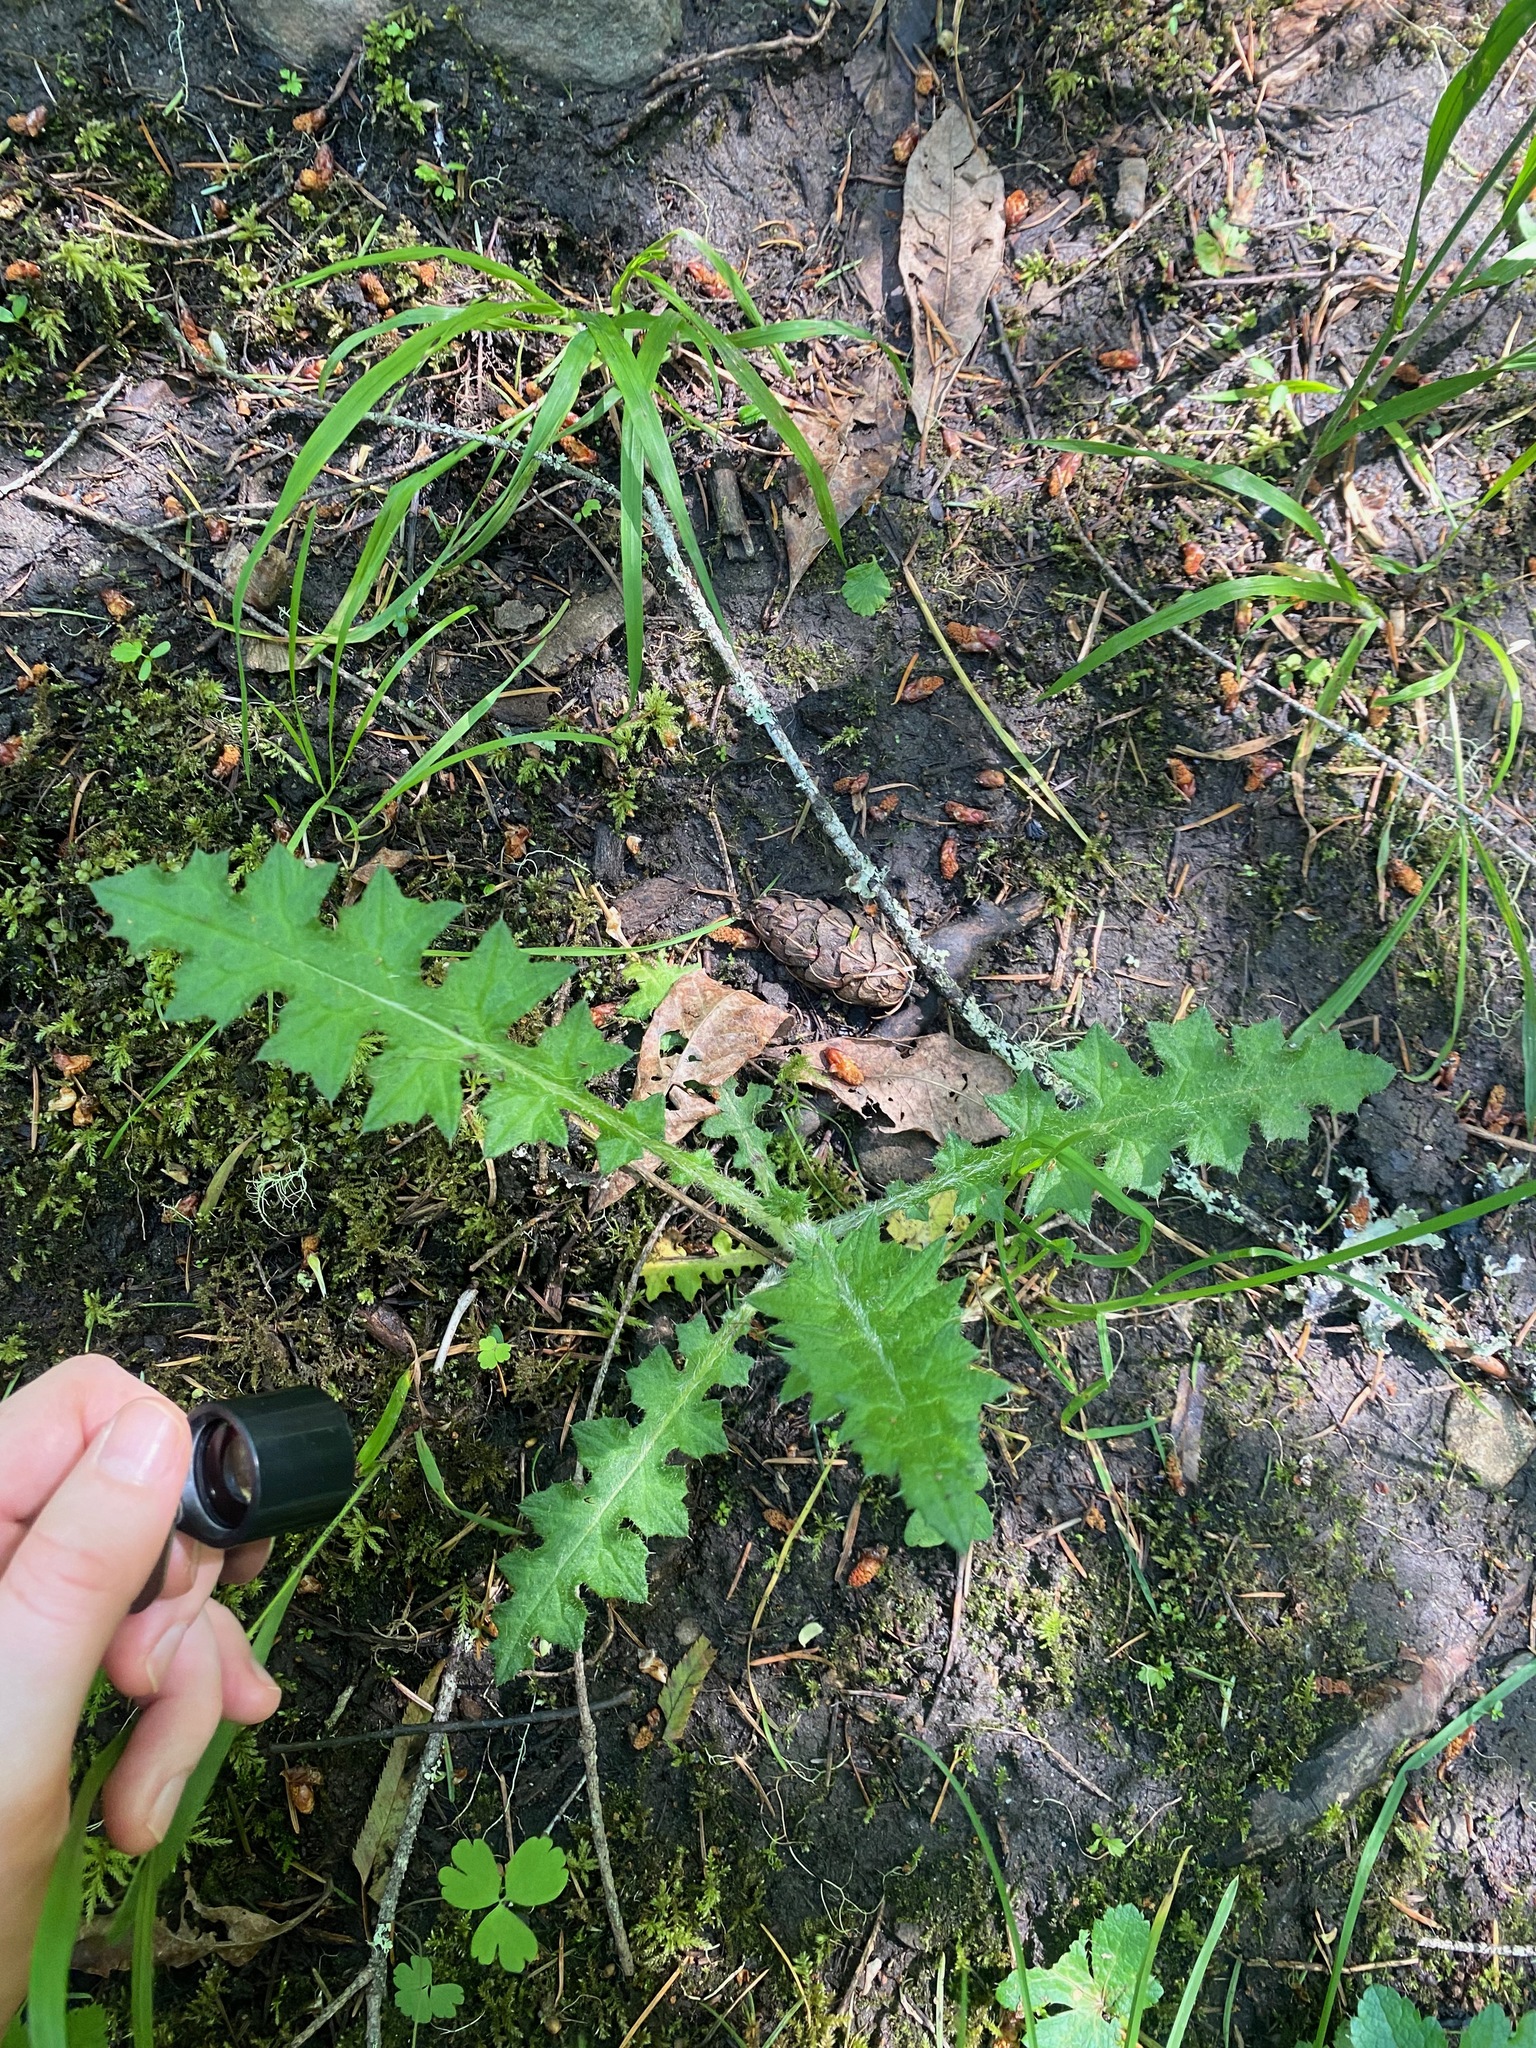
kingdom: Plantae
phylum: Tracheophyta
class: Magnoliopsida
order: Asterales
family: Asteraceae
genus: Cirsium
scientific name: Cirsium vulgare
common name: Bull thistle
